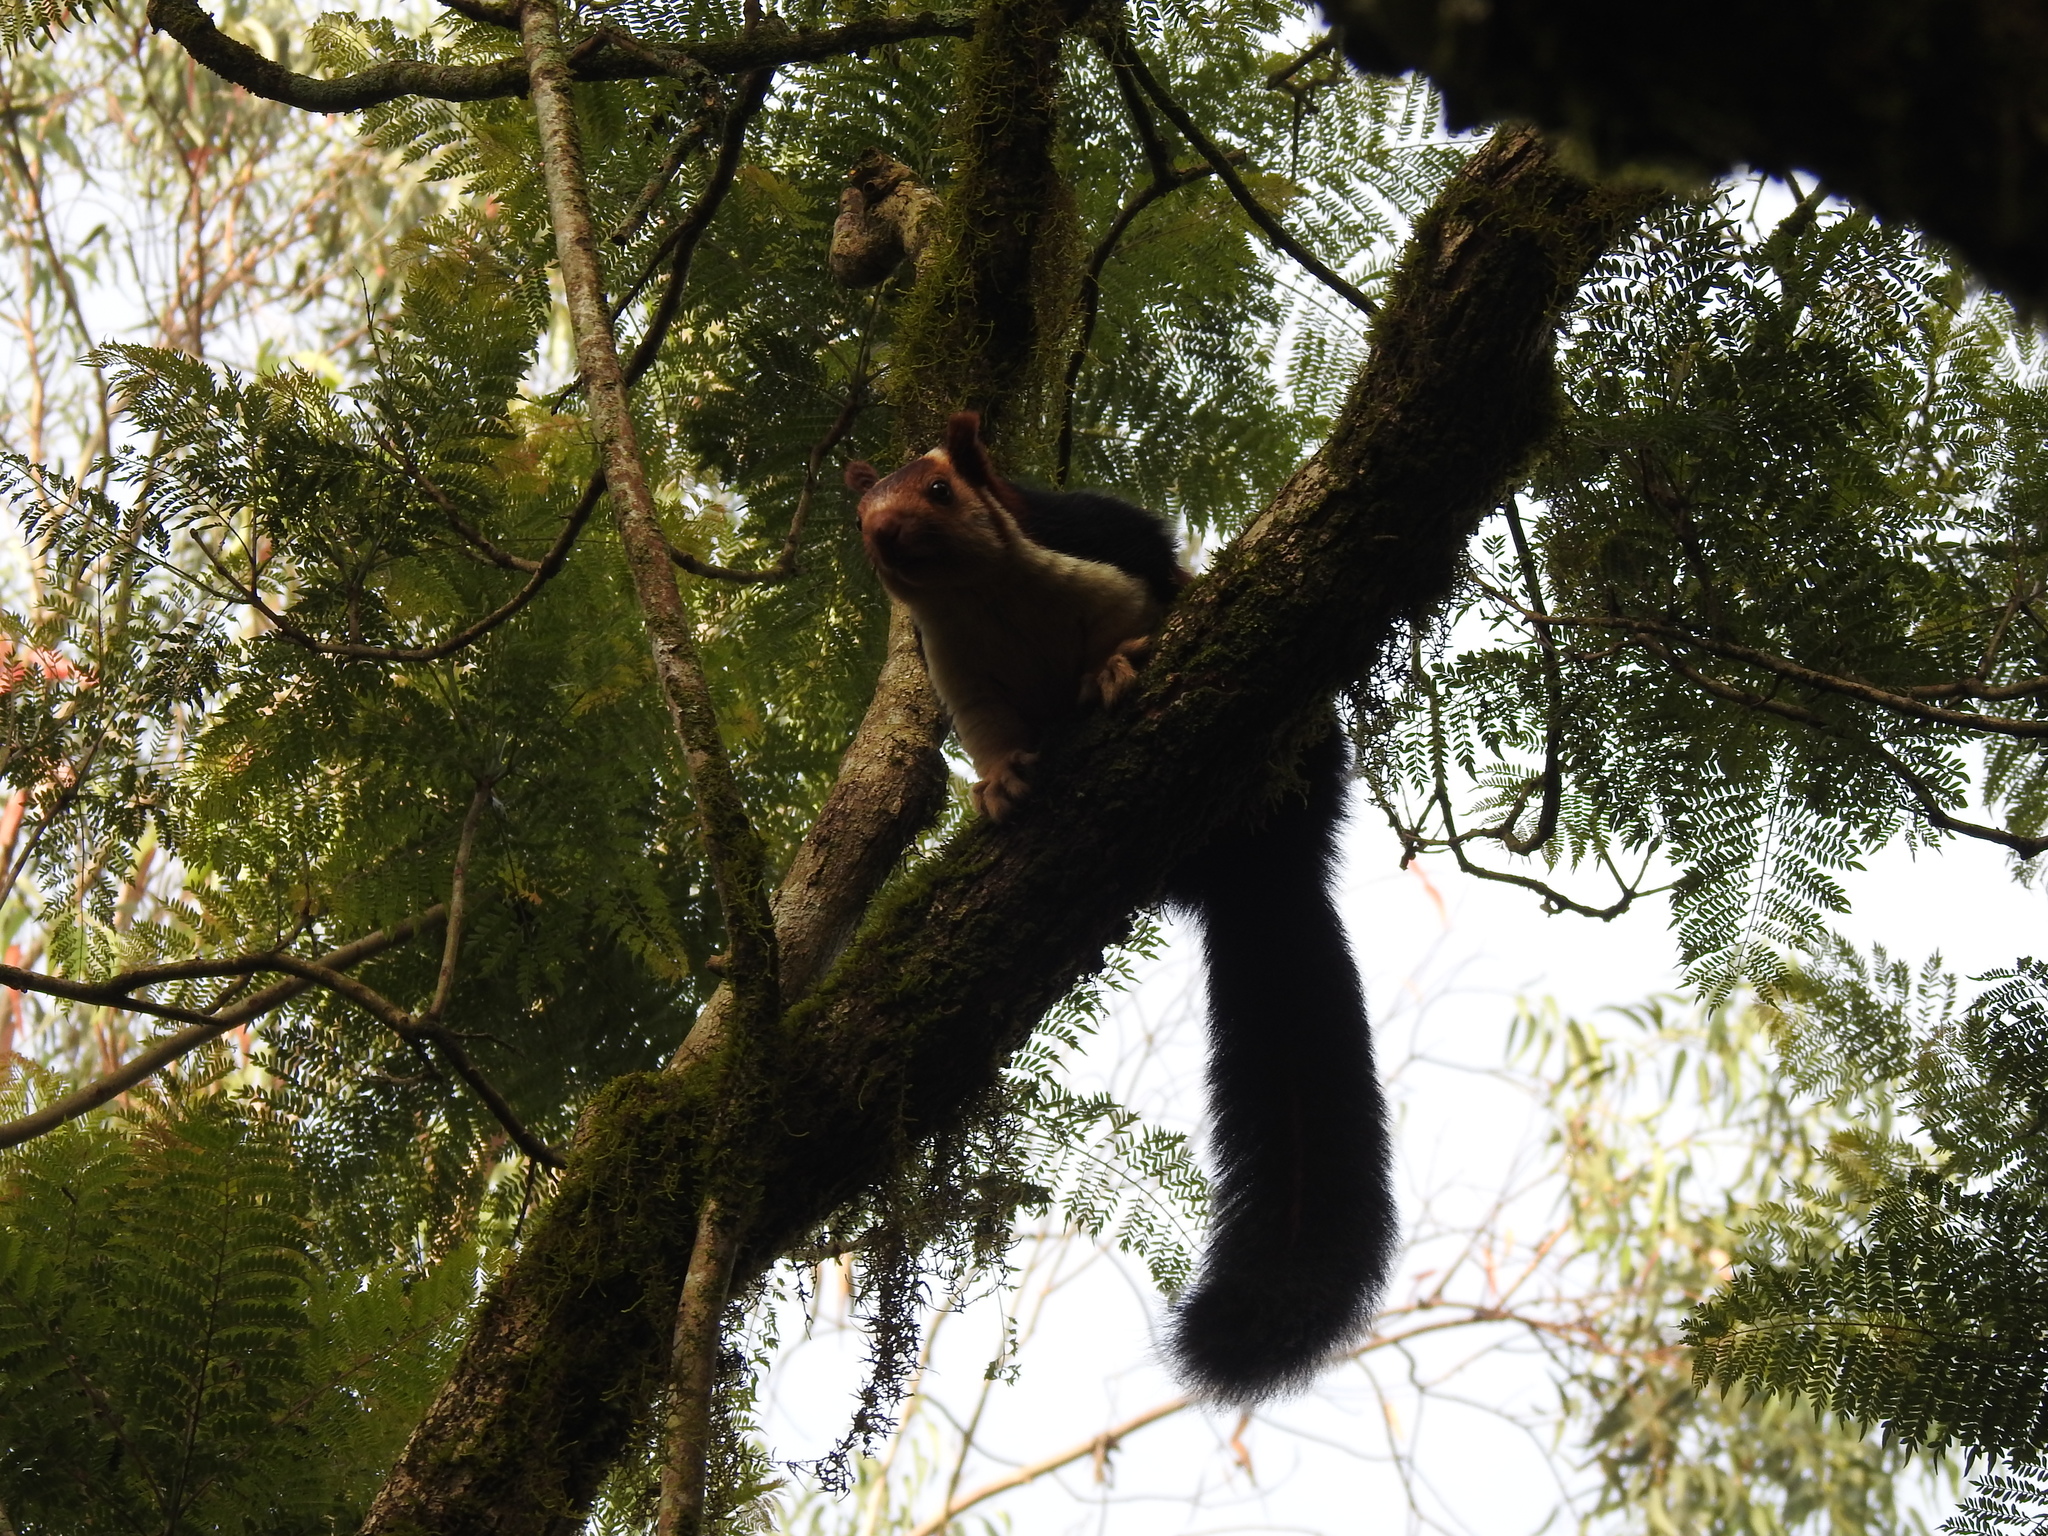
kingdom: Animalia
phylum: Chordata
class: Mammalia
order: Rodentia
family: Sciuridae
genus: Ratufa
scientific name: Ratufa indica
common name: Indian giant squirrel
